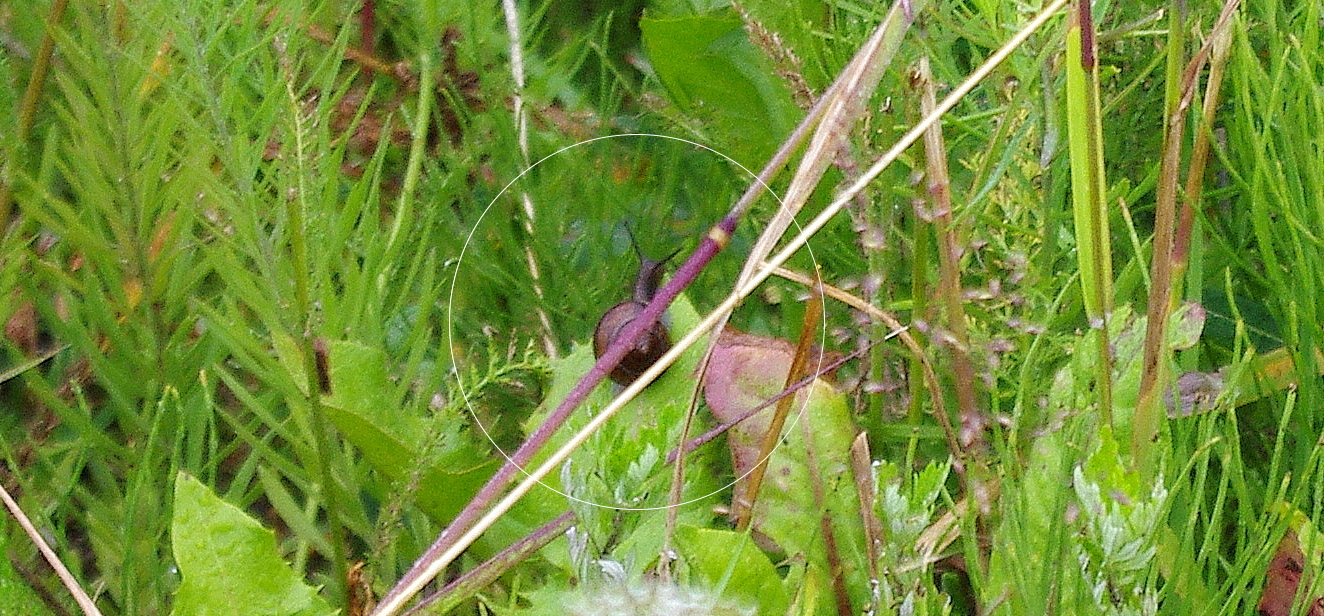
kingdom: Animalia
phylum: Mollusca
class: Gastropoda
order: Stylommatophora
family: Helicidae
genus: Arianta
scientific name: Arianta arbustorum
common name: Copse snail
